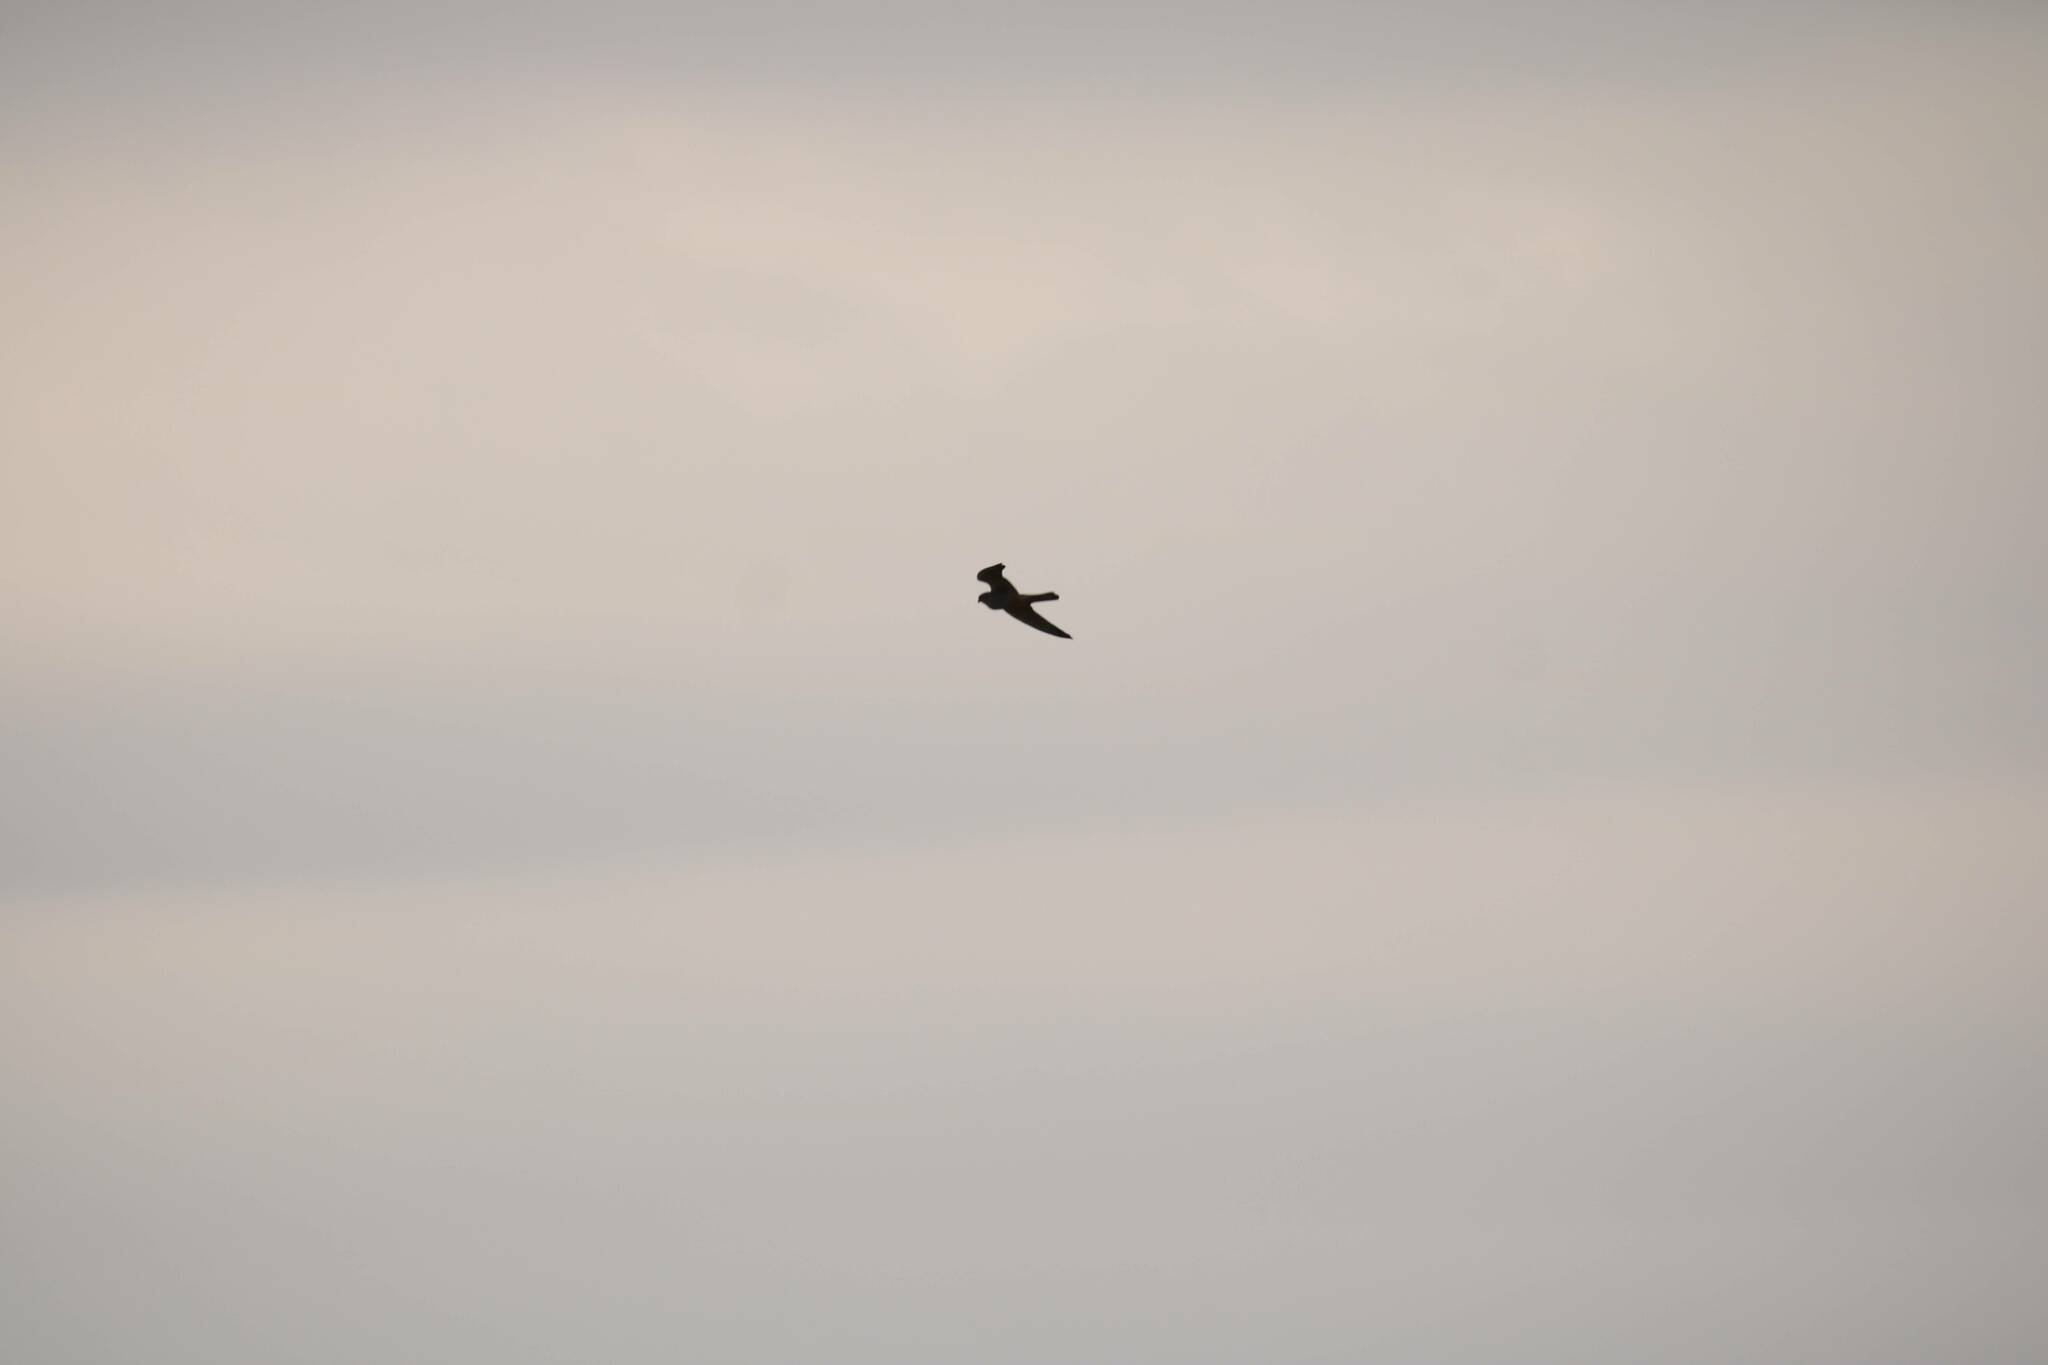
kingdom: Animalia
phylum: Chordata
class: Aves
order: Falconiformes
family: Falconidae
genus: Falco
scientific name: Falco eleonorae
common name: Eleonora's falcon
